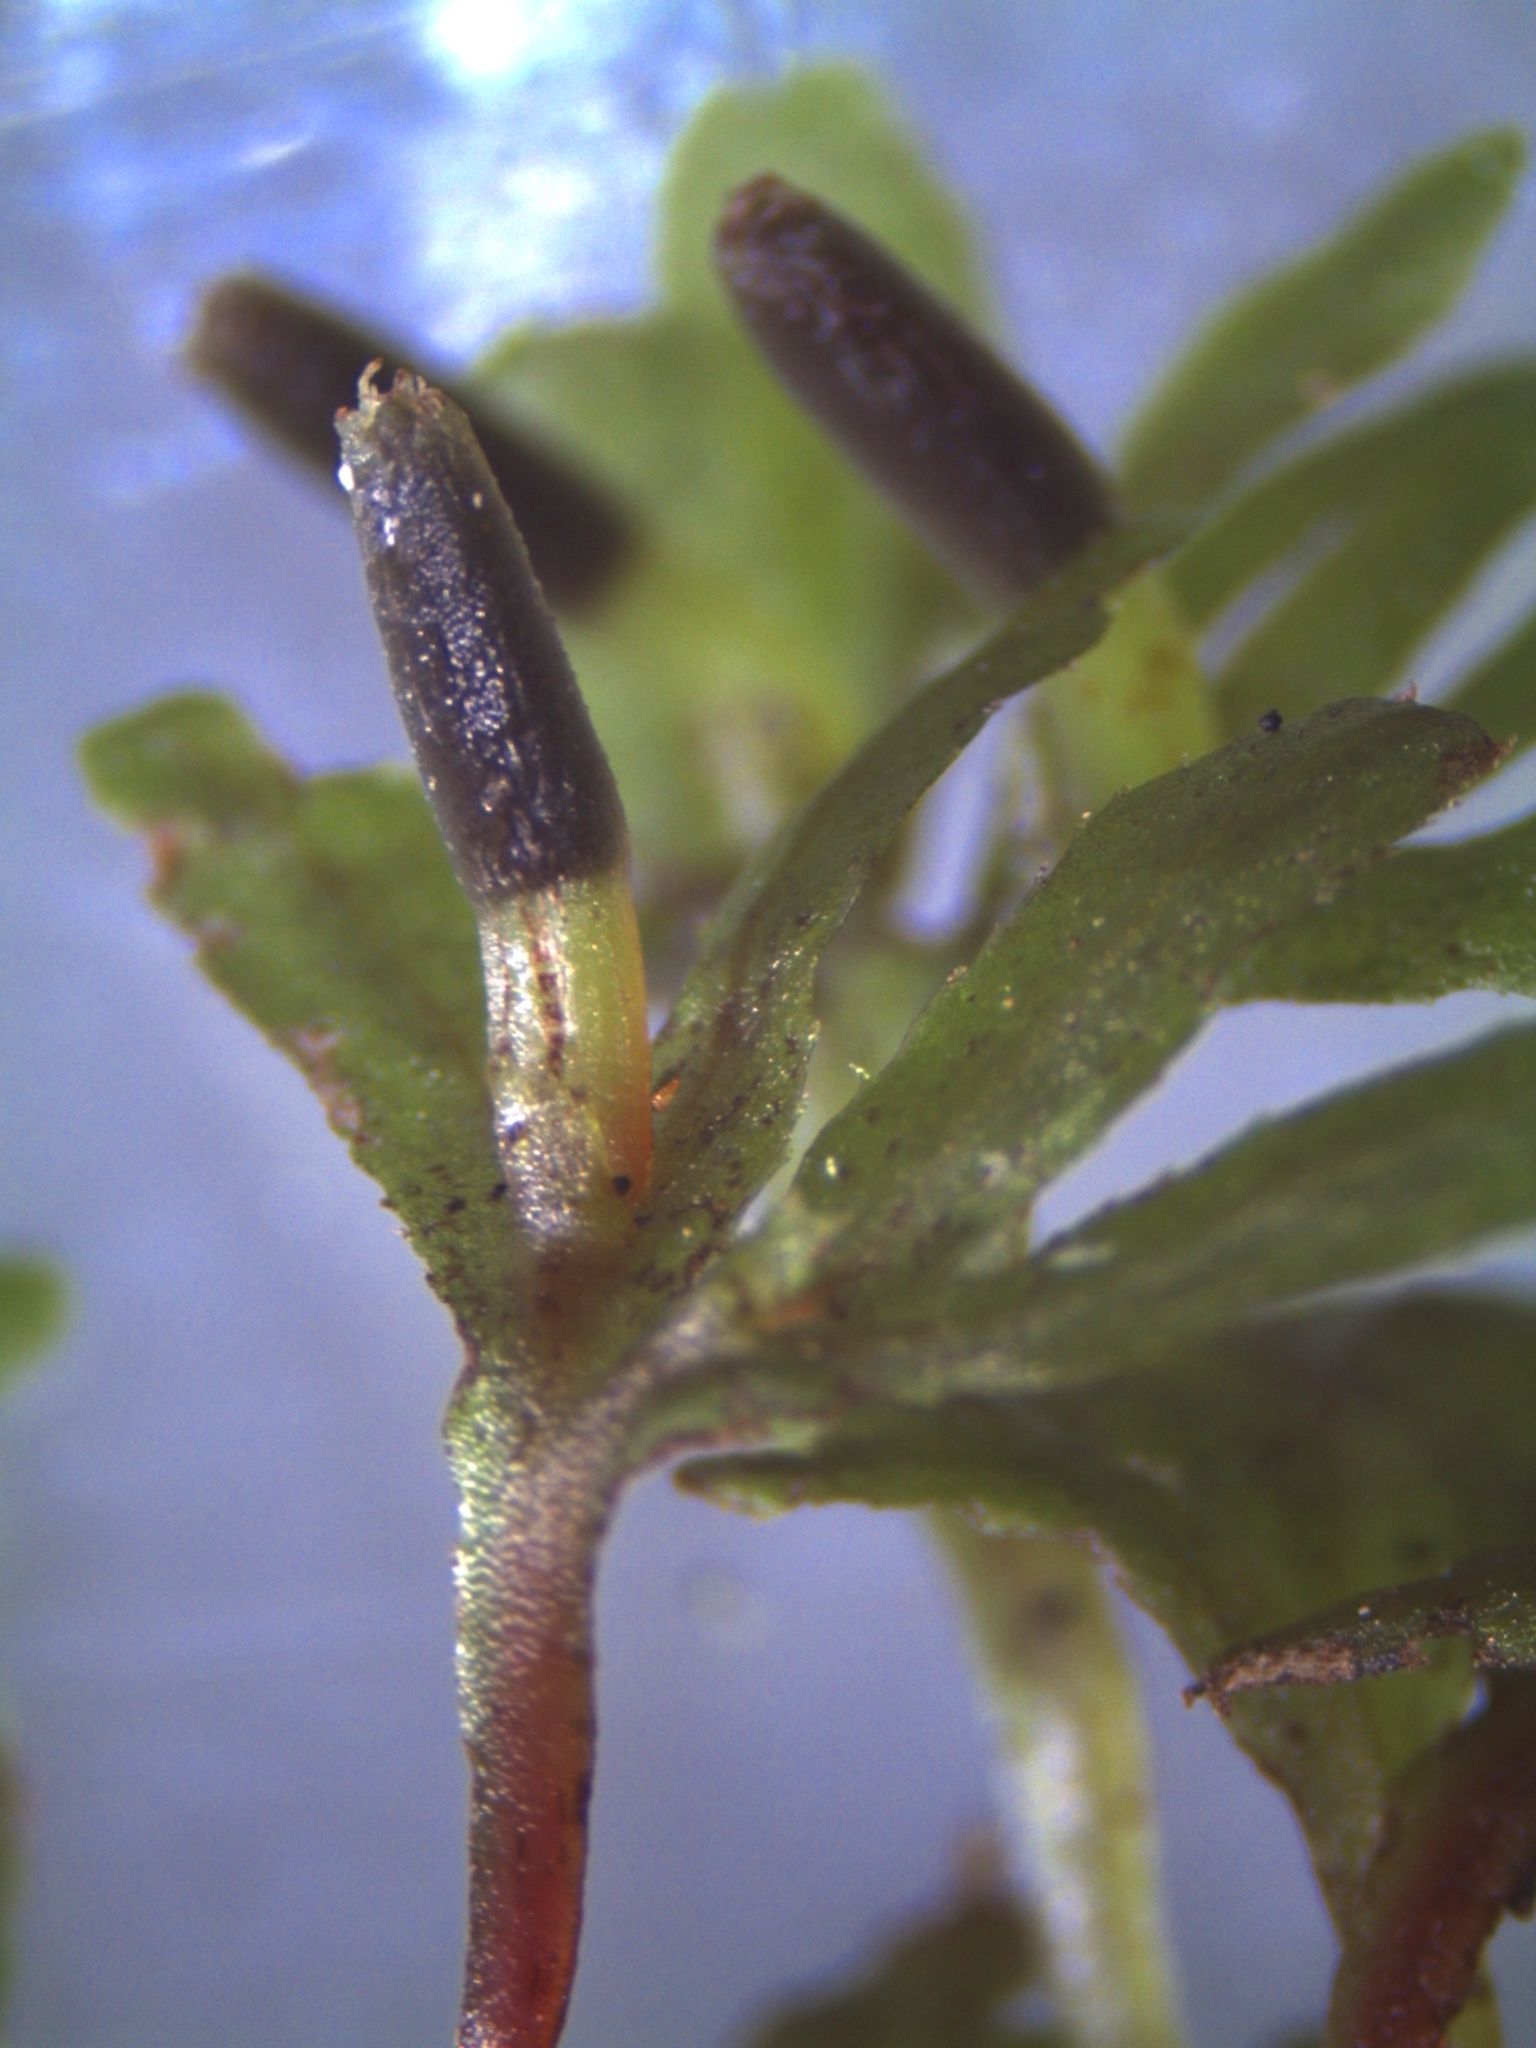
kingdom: Plantae
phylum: Marchantiophyta
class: Jungermanniopsida
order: Pallaviciniales
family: Pallaviciniaceae
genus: Symphyogyna
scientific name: Symphyogyna hymenophyllum
